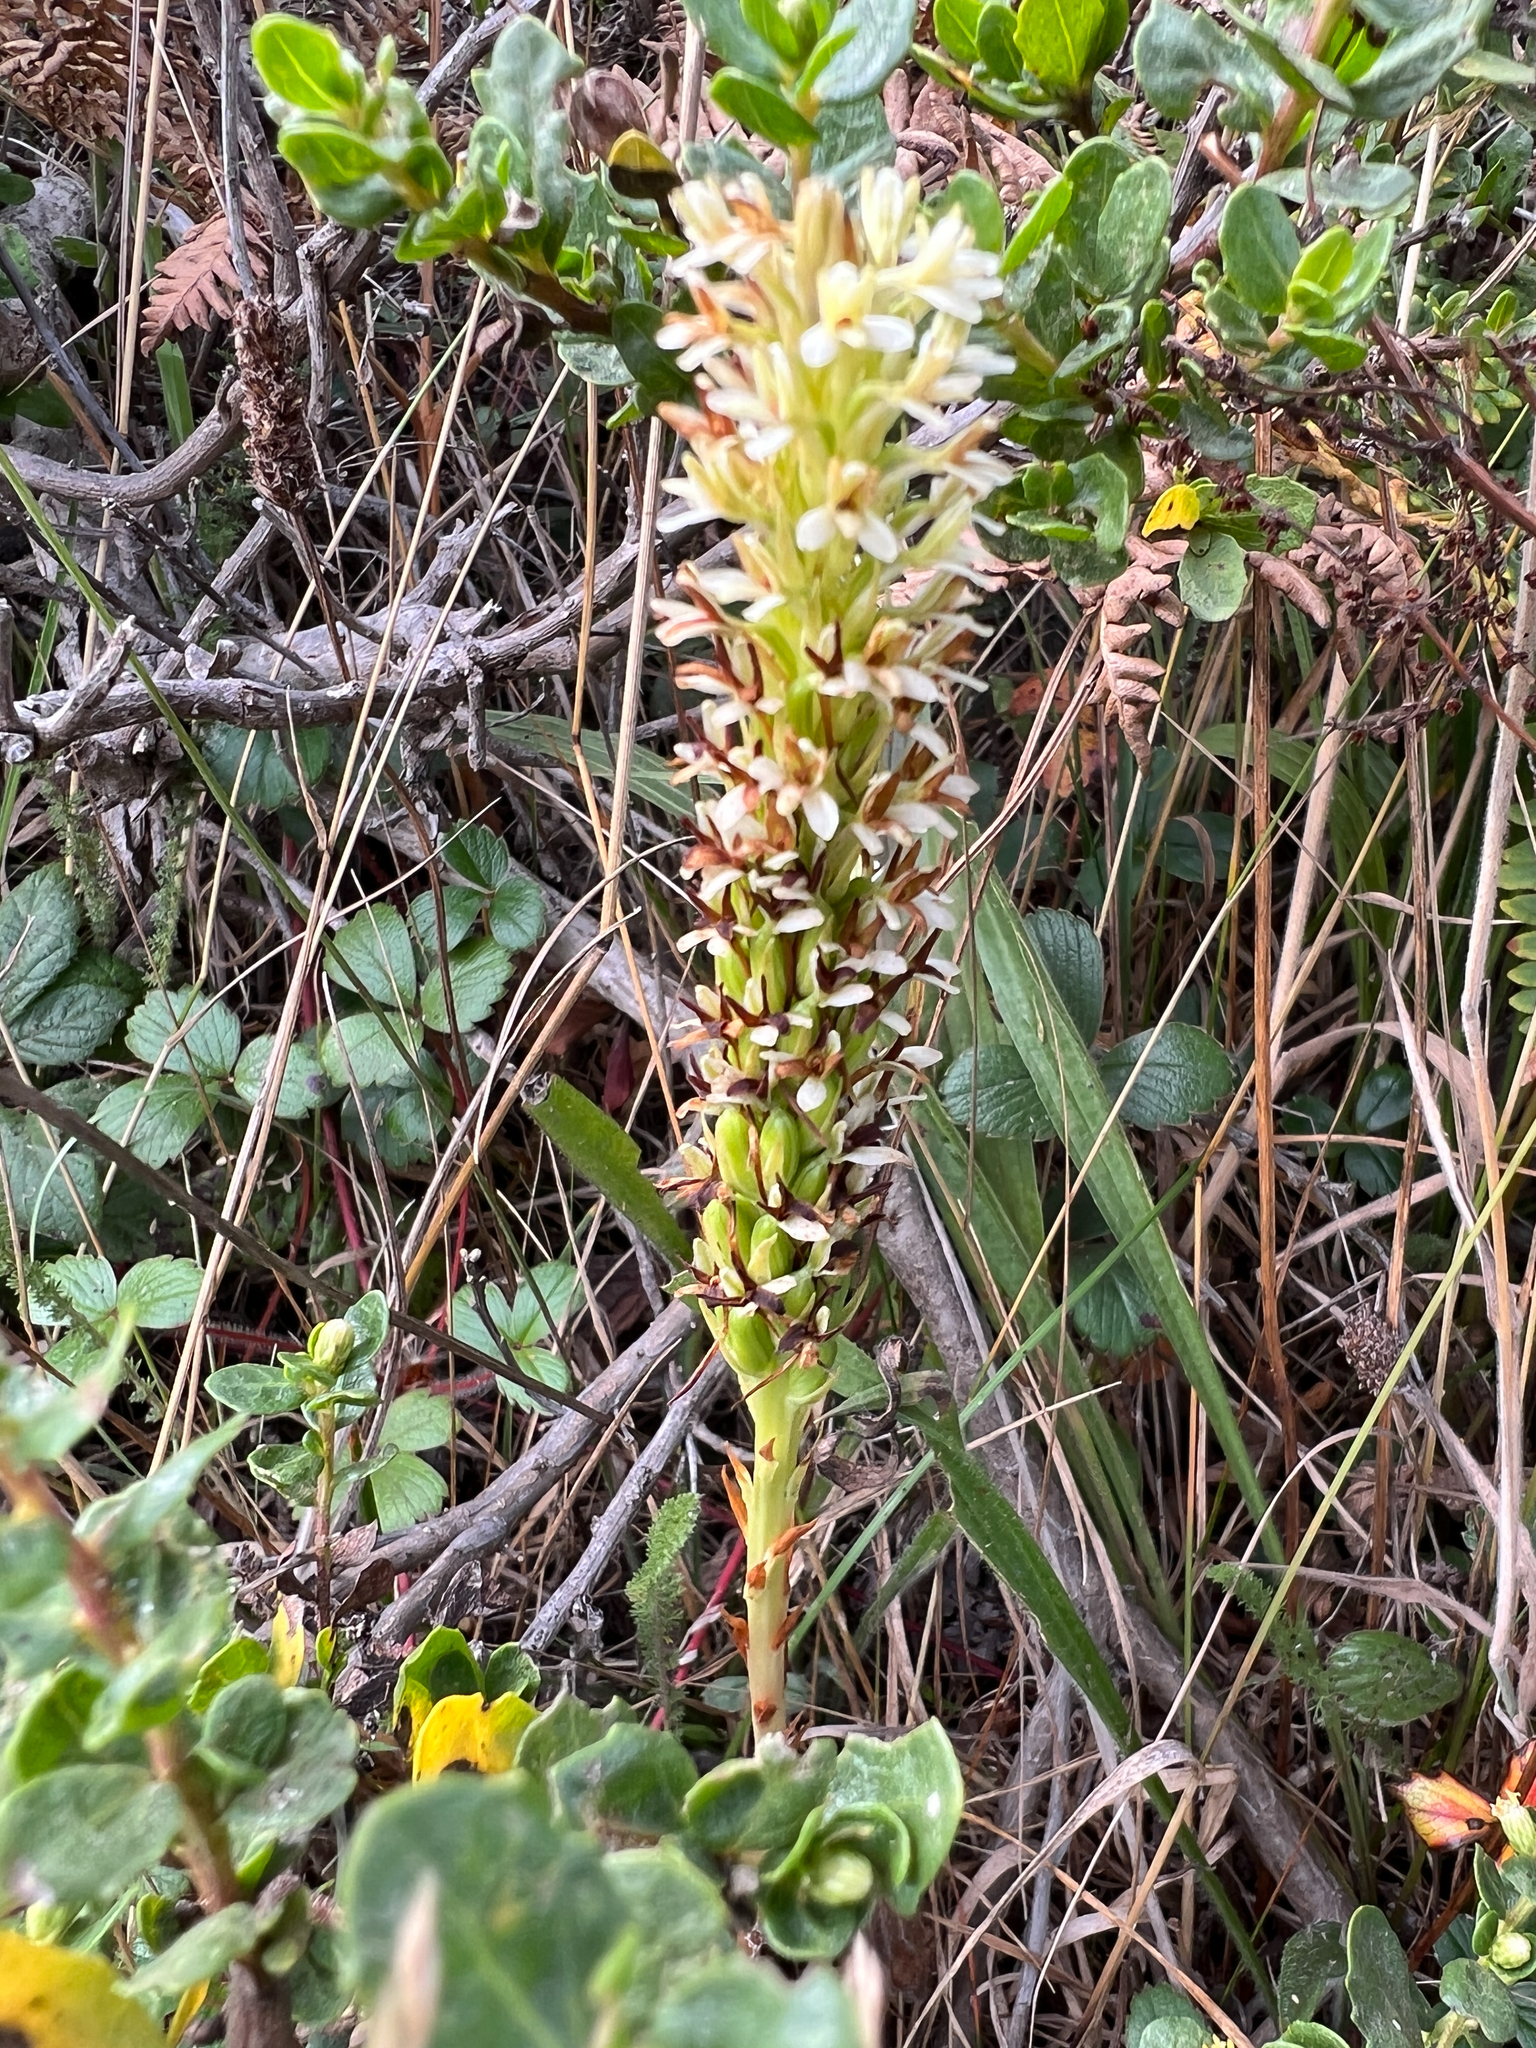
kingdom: Plantae
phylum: Tracheophyta
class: Liliopsida
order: Asparagales
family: Orchidaceae
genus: Platanthera
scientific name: Platanthera elegans
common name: Coast piperia
